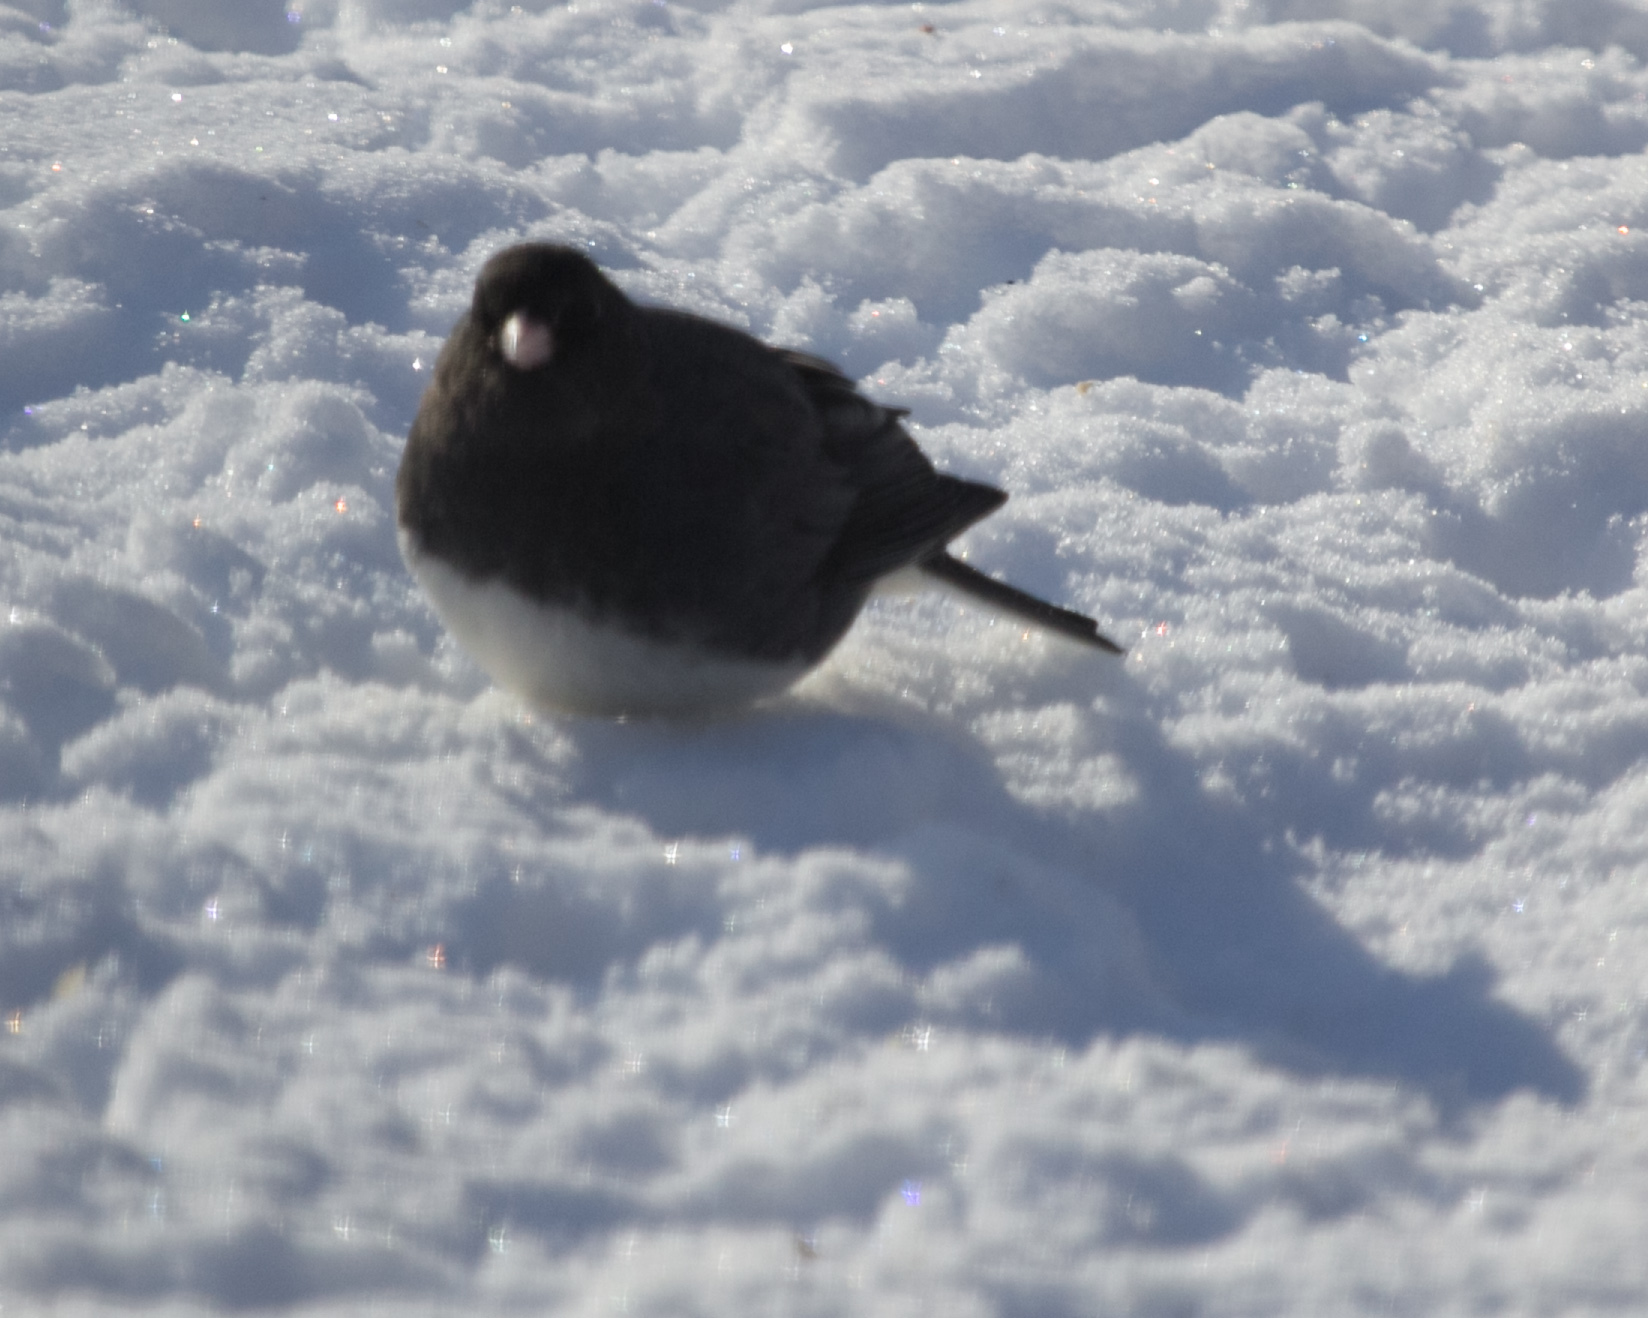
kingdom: Animalia
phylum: Chordata
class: Aves
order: Passeriformes
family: Passerellidae
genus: Junco
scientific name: Junco hyemalis
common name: Dark-eyed junco
